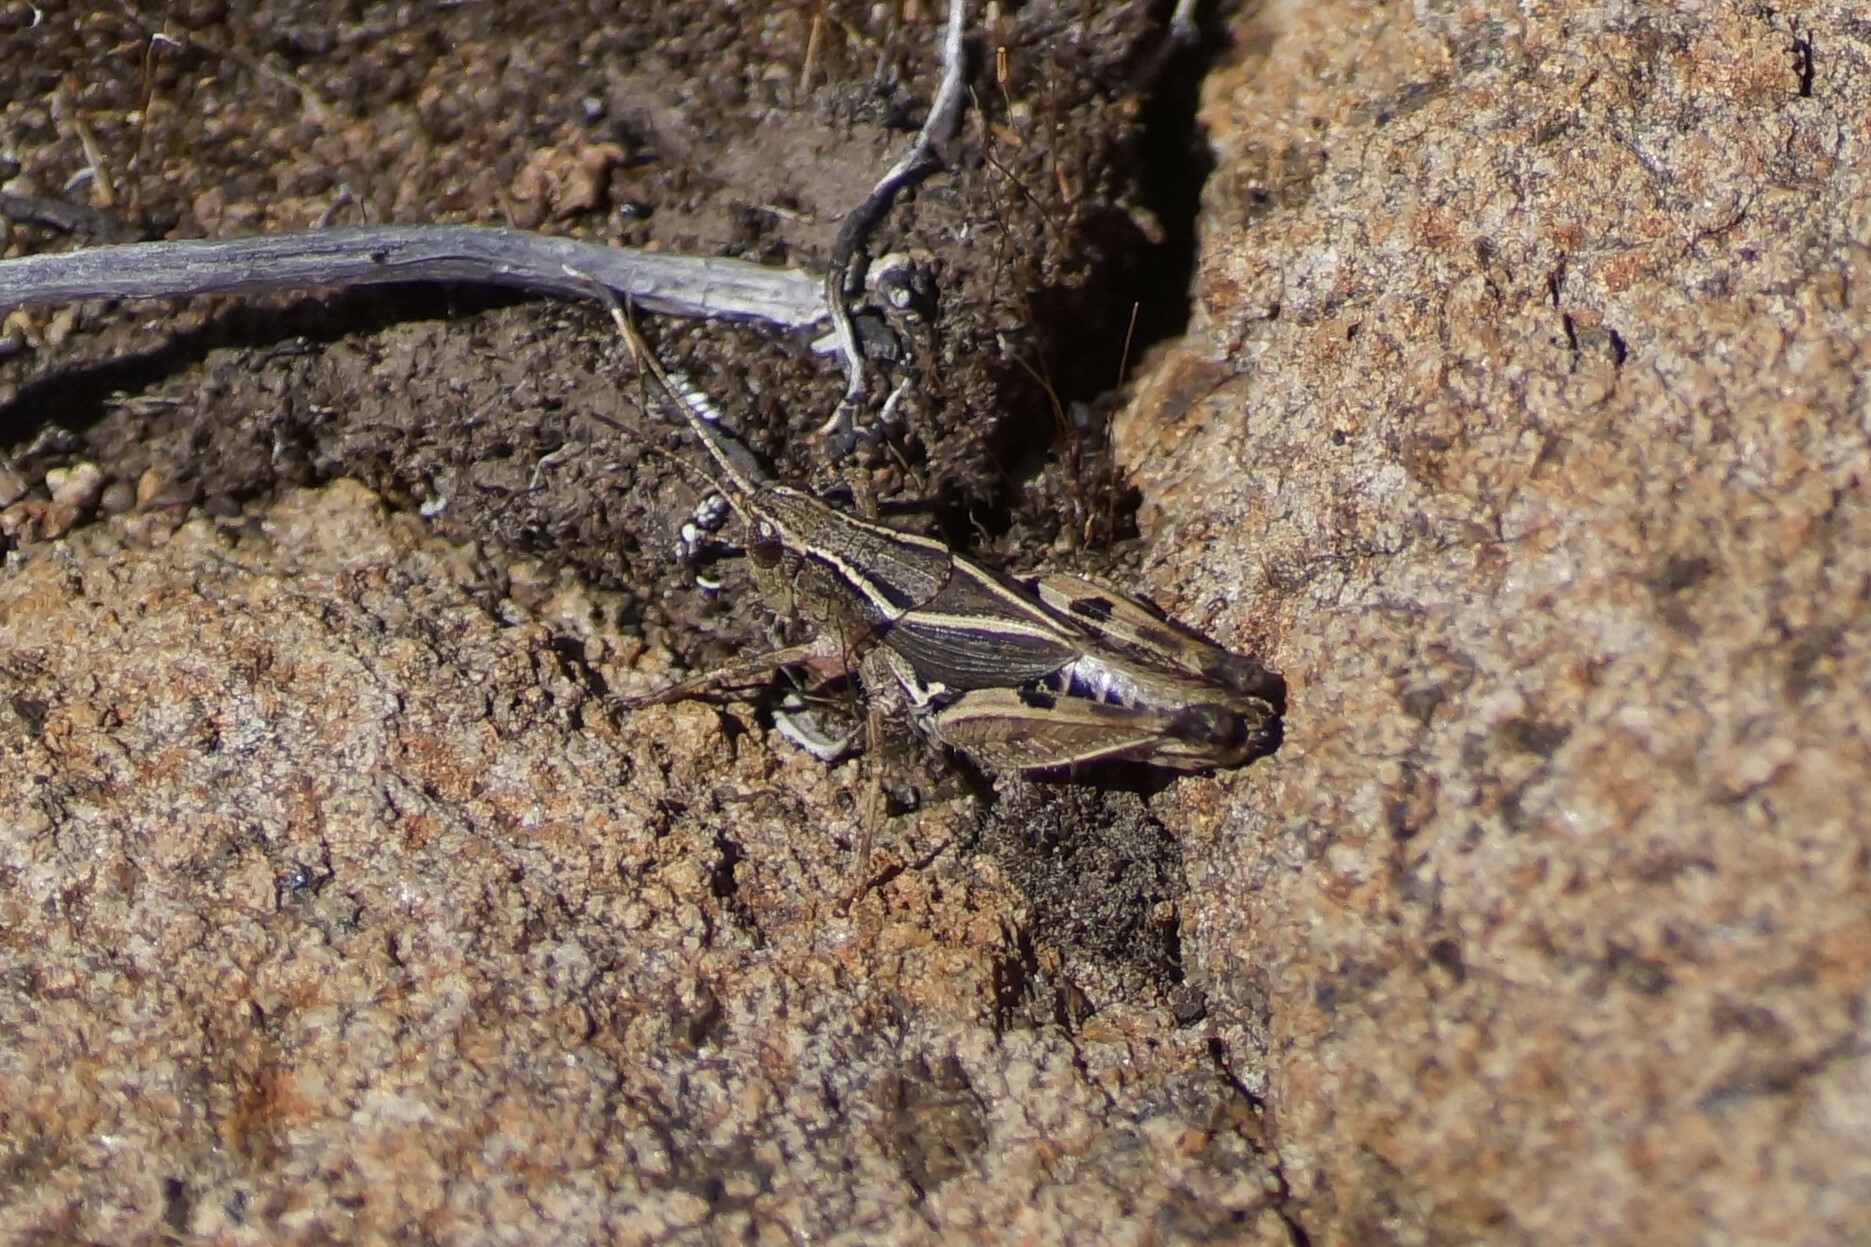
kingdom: Animalia
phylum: Arthropoda
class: Insecta
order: Orthoptera
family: Acrididae
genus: Phaulacridium
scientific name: Phaulacridium vittatum
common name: Wingless grasshopper
